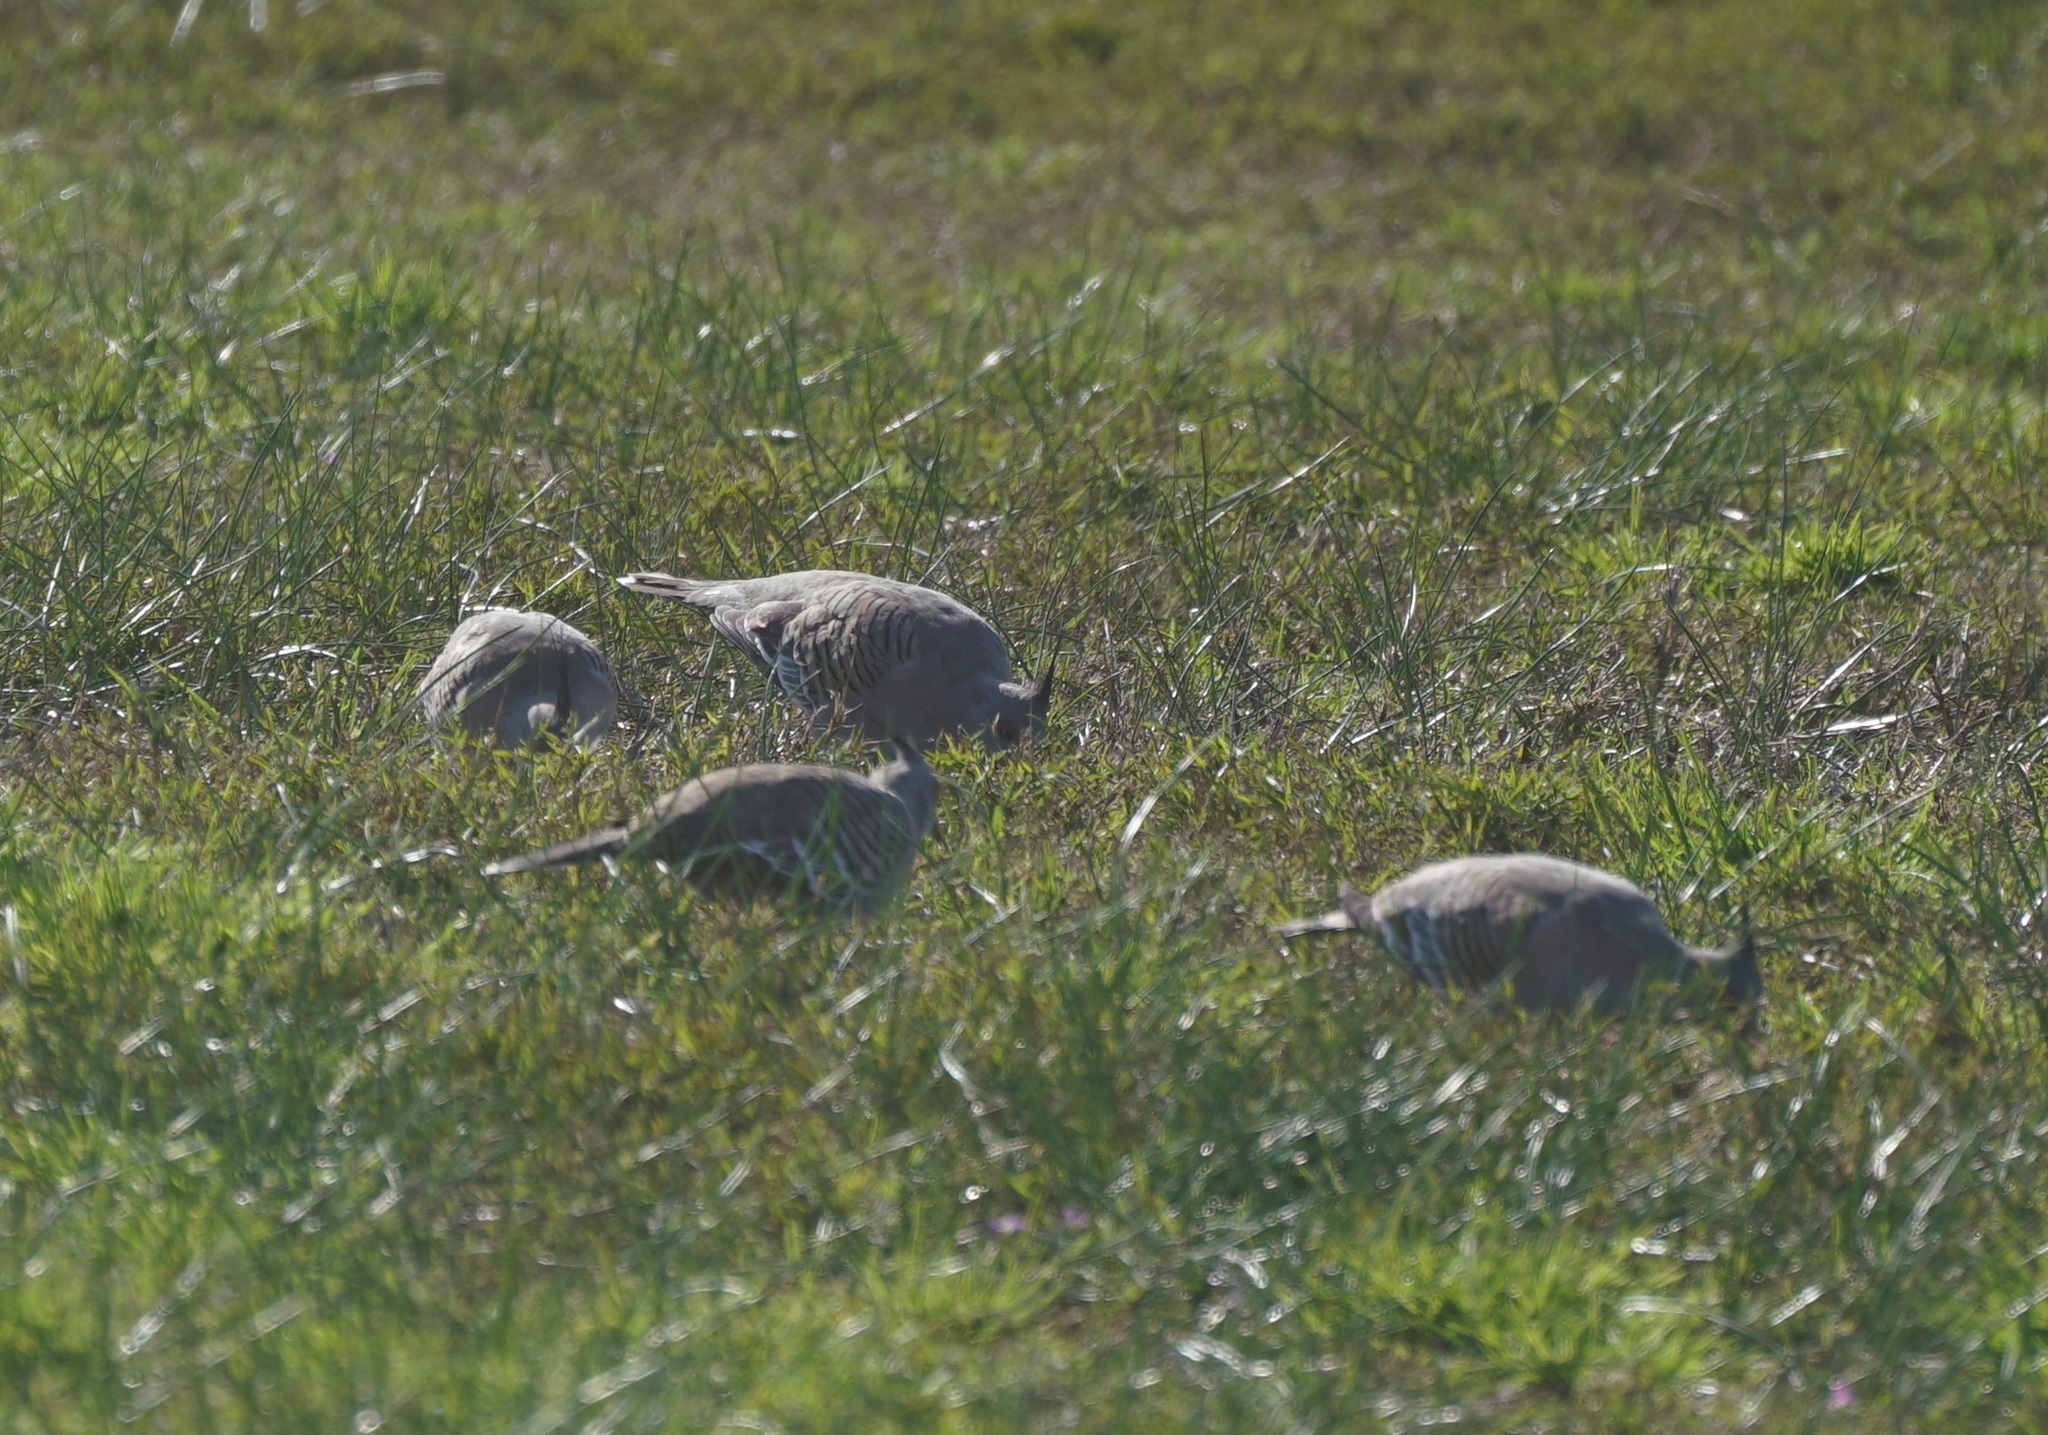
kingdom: Animalia
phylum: Chordata
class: Aves
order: Columbiformes
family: Columbidae
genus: Ocyphaps
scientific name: Ocyphaps lophotes
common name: Crested pigeon
